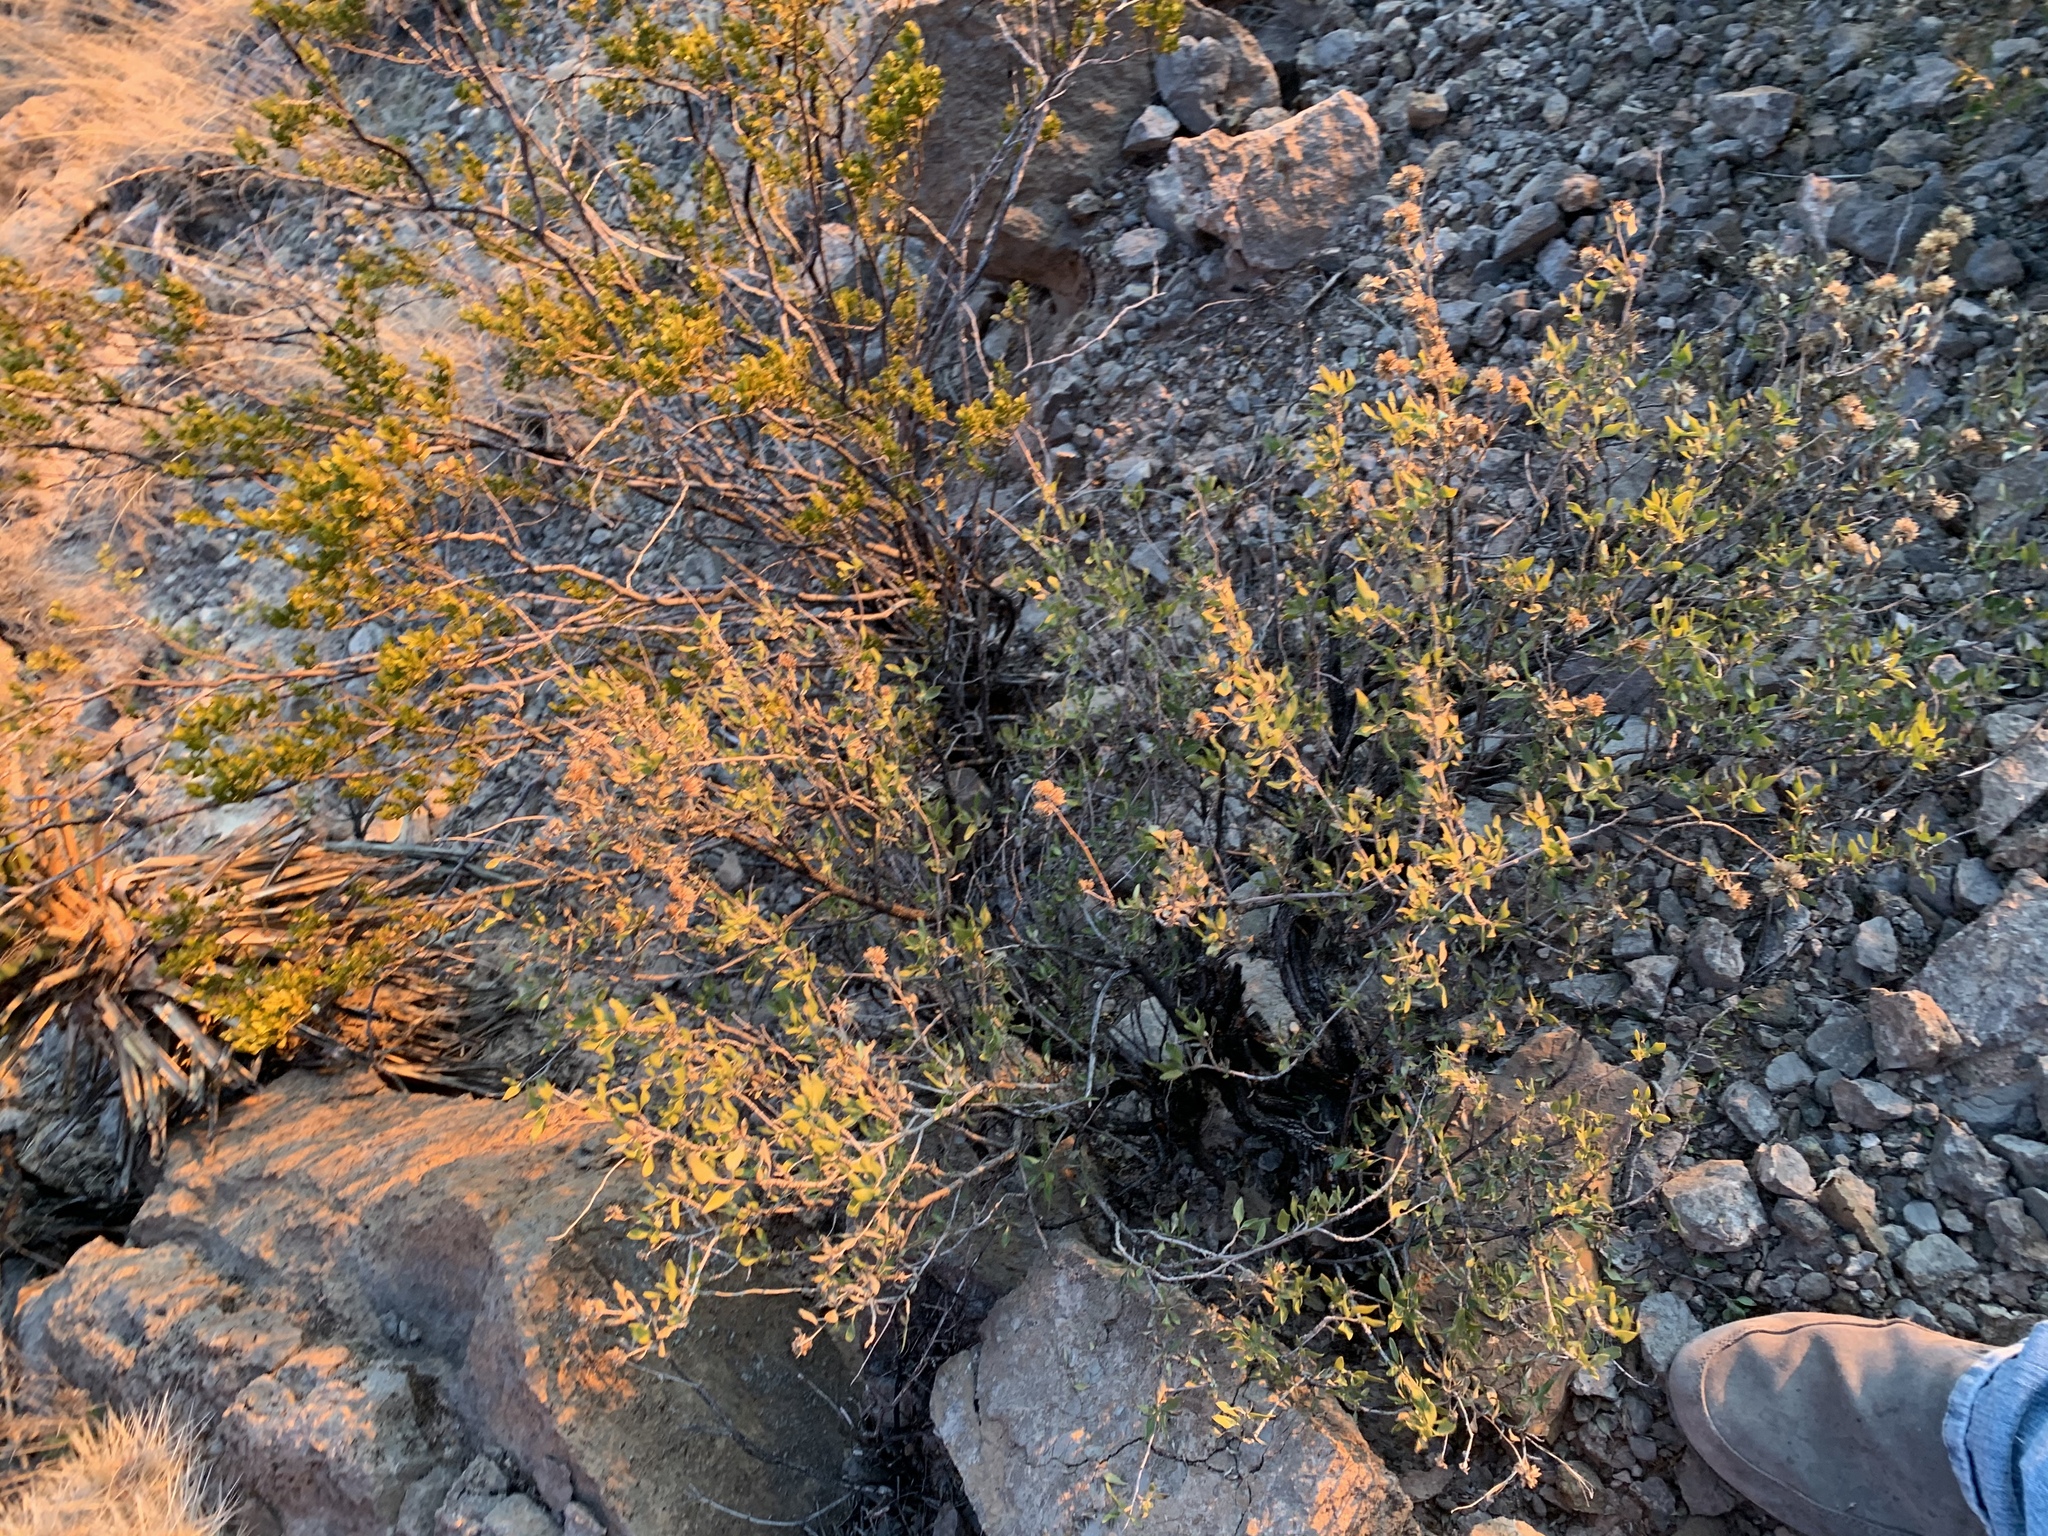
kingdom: Plantae
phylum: Tracheophyta
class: Magnoliopsida
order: Asterales
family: Asteraceae
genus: Flourensia
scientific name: Flourensia cernua
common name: Varnishbush
